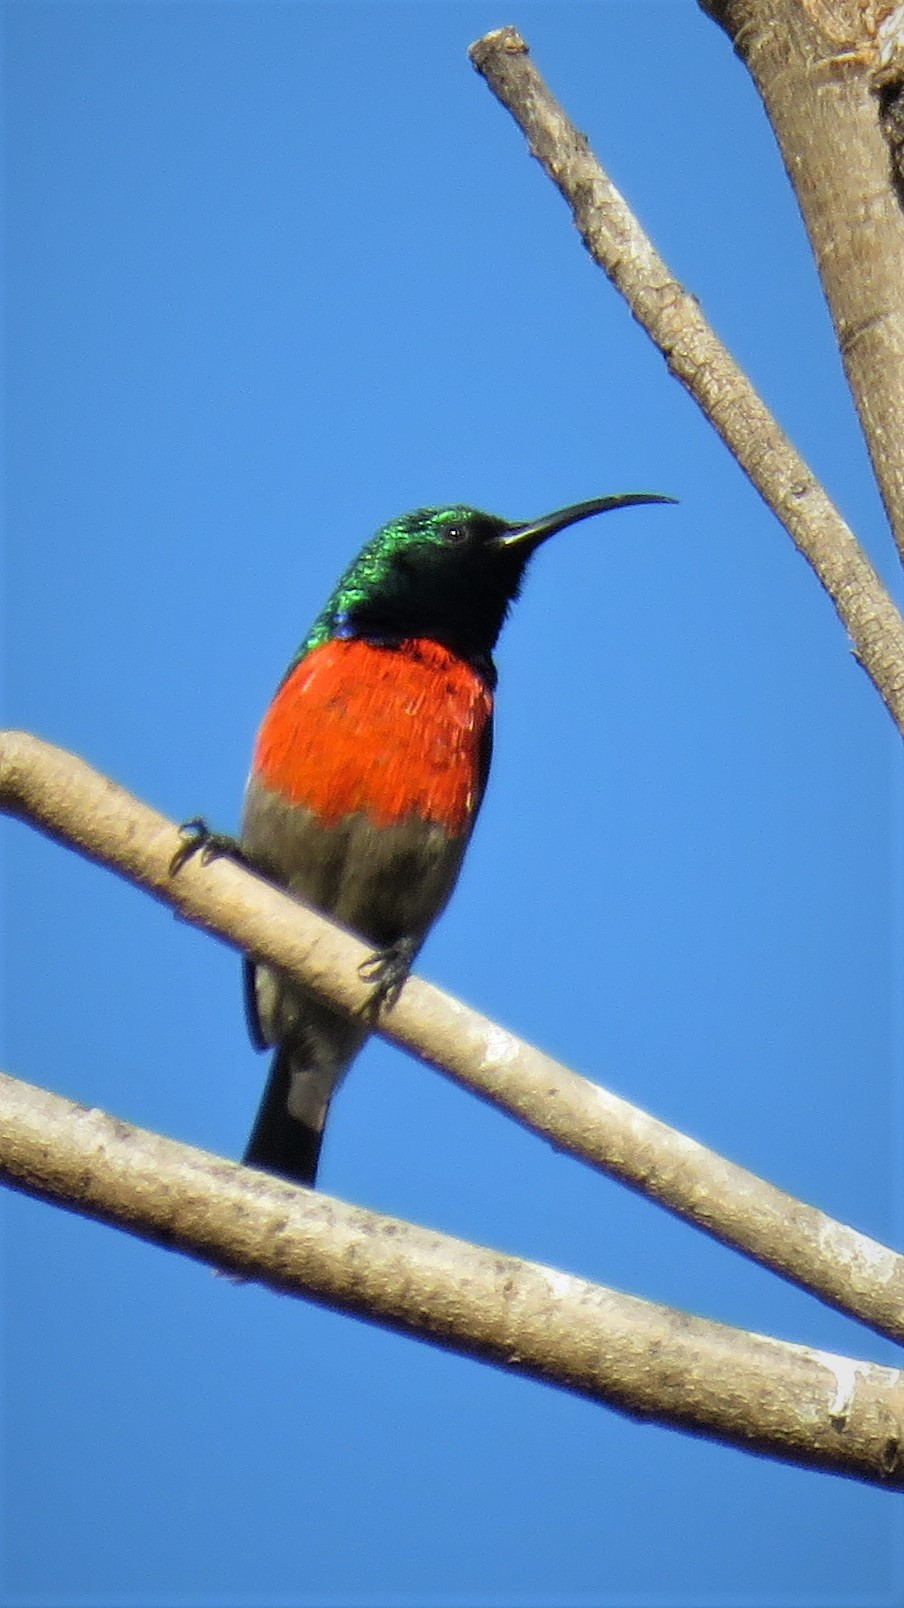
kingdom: Animalia
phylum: Chordata
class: Aves
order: Passeriformes
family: Nectariniidae
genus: Cinnyris
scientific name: Cinnyris afer
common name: Greater double-collared sunbird
